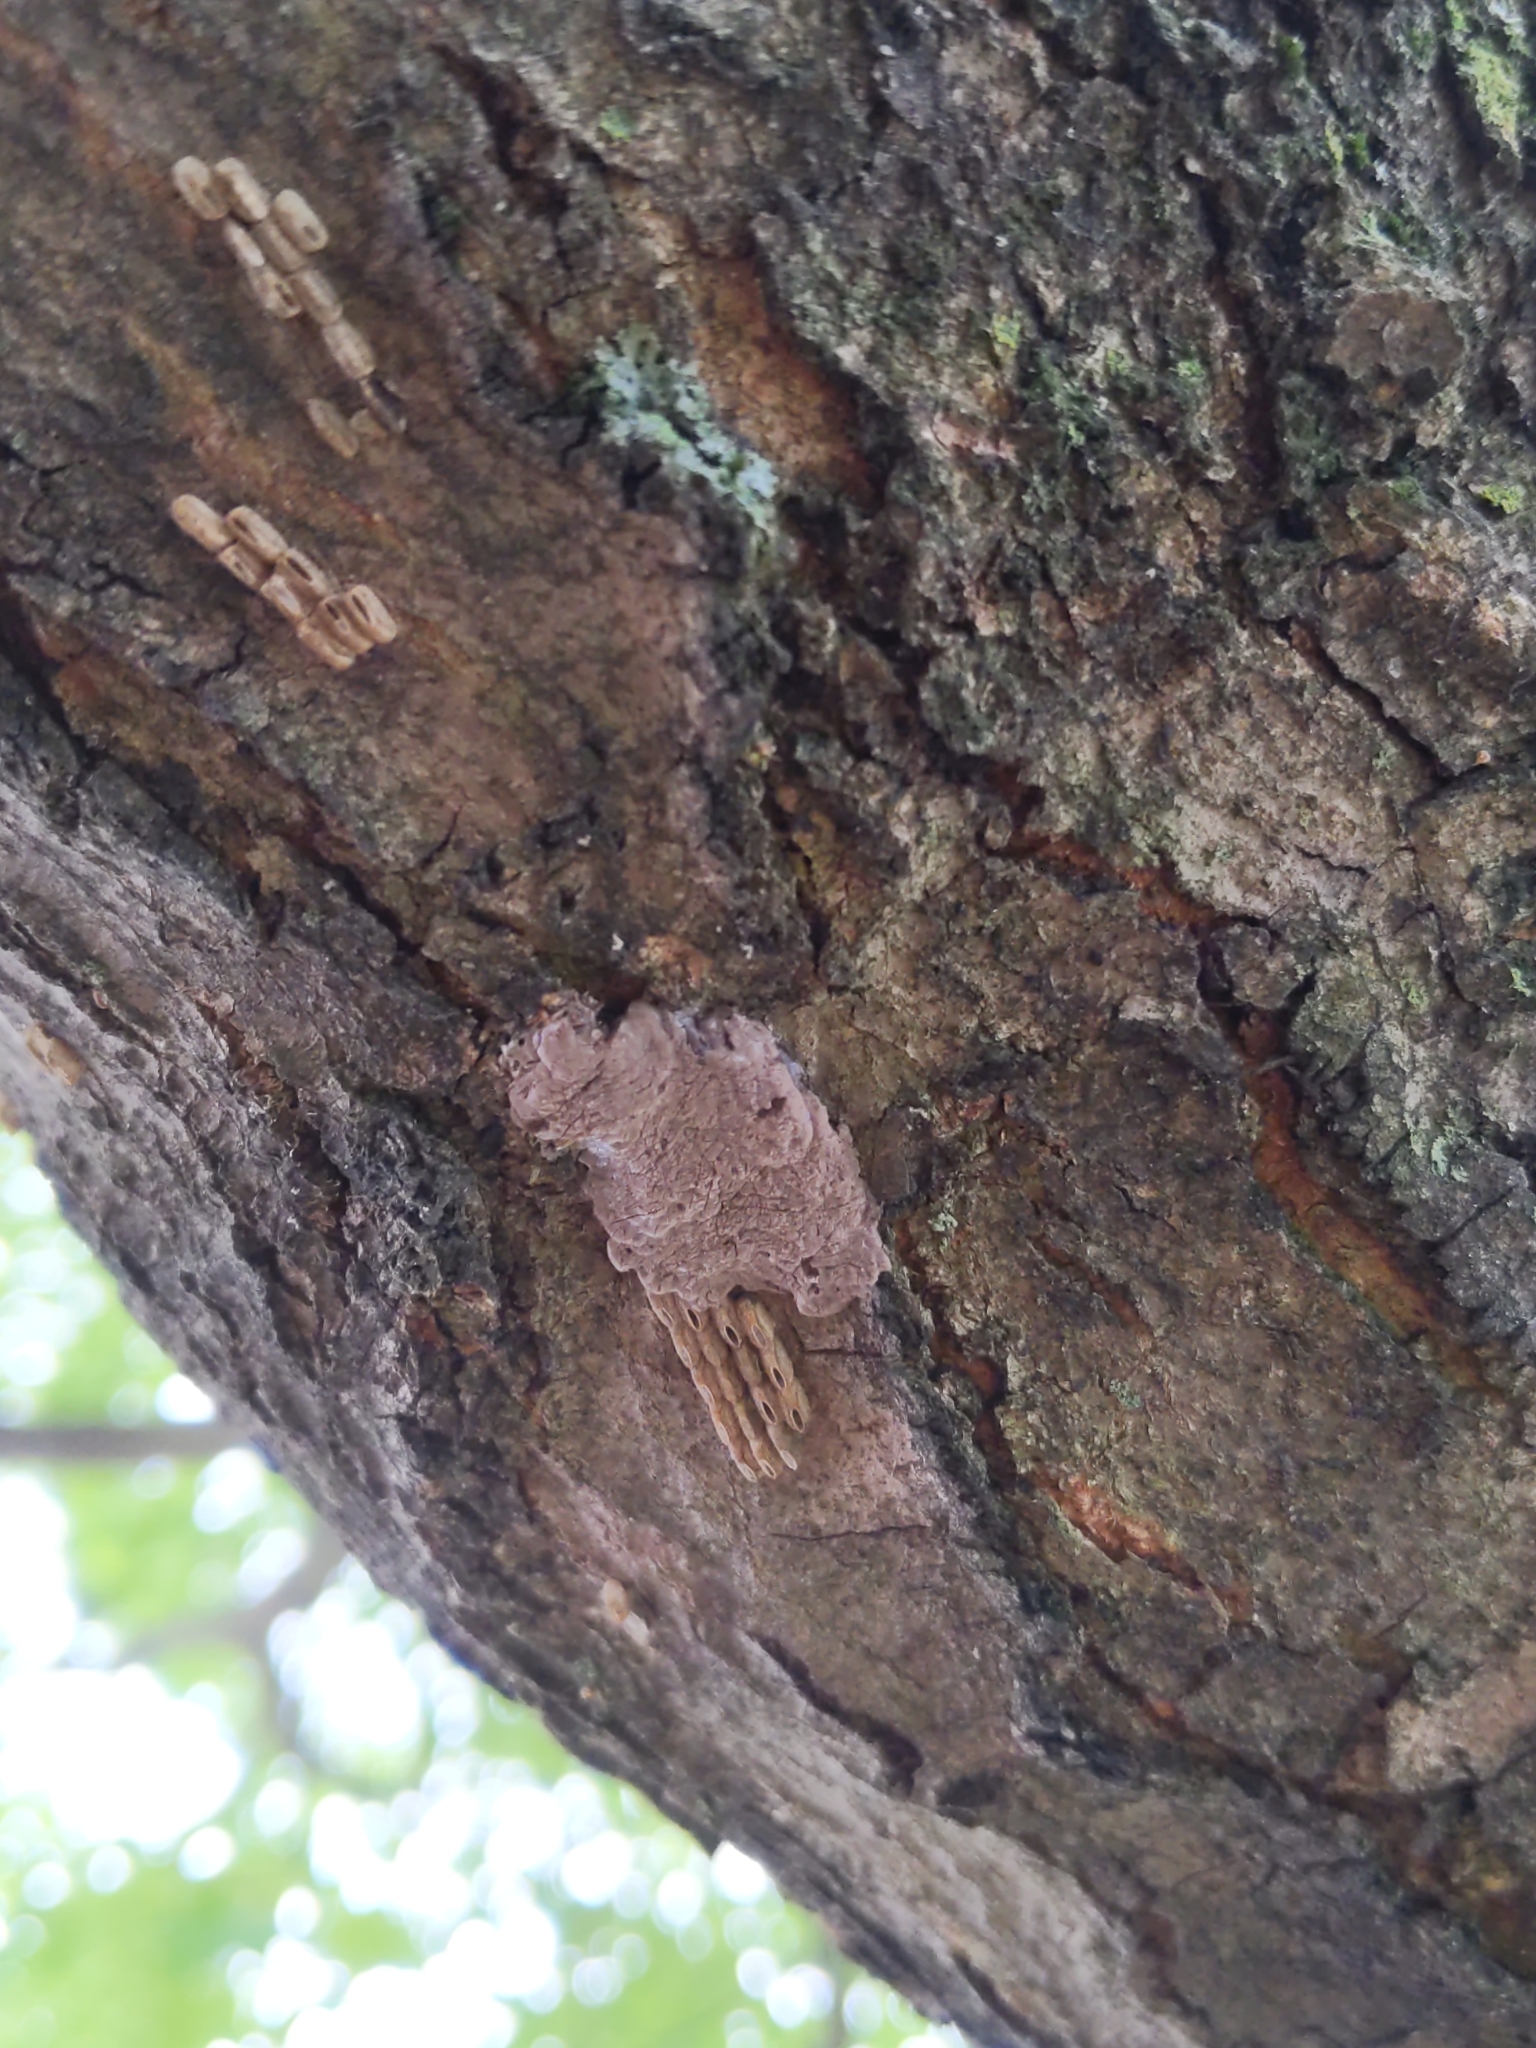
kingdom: Animalia
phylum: Arthropoda
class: Insecta
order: Hemiptera
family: Fulgoridae
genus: Lycorma
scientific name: Lycorma delicatula
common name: Spotted lanternfly
